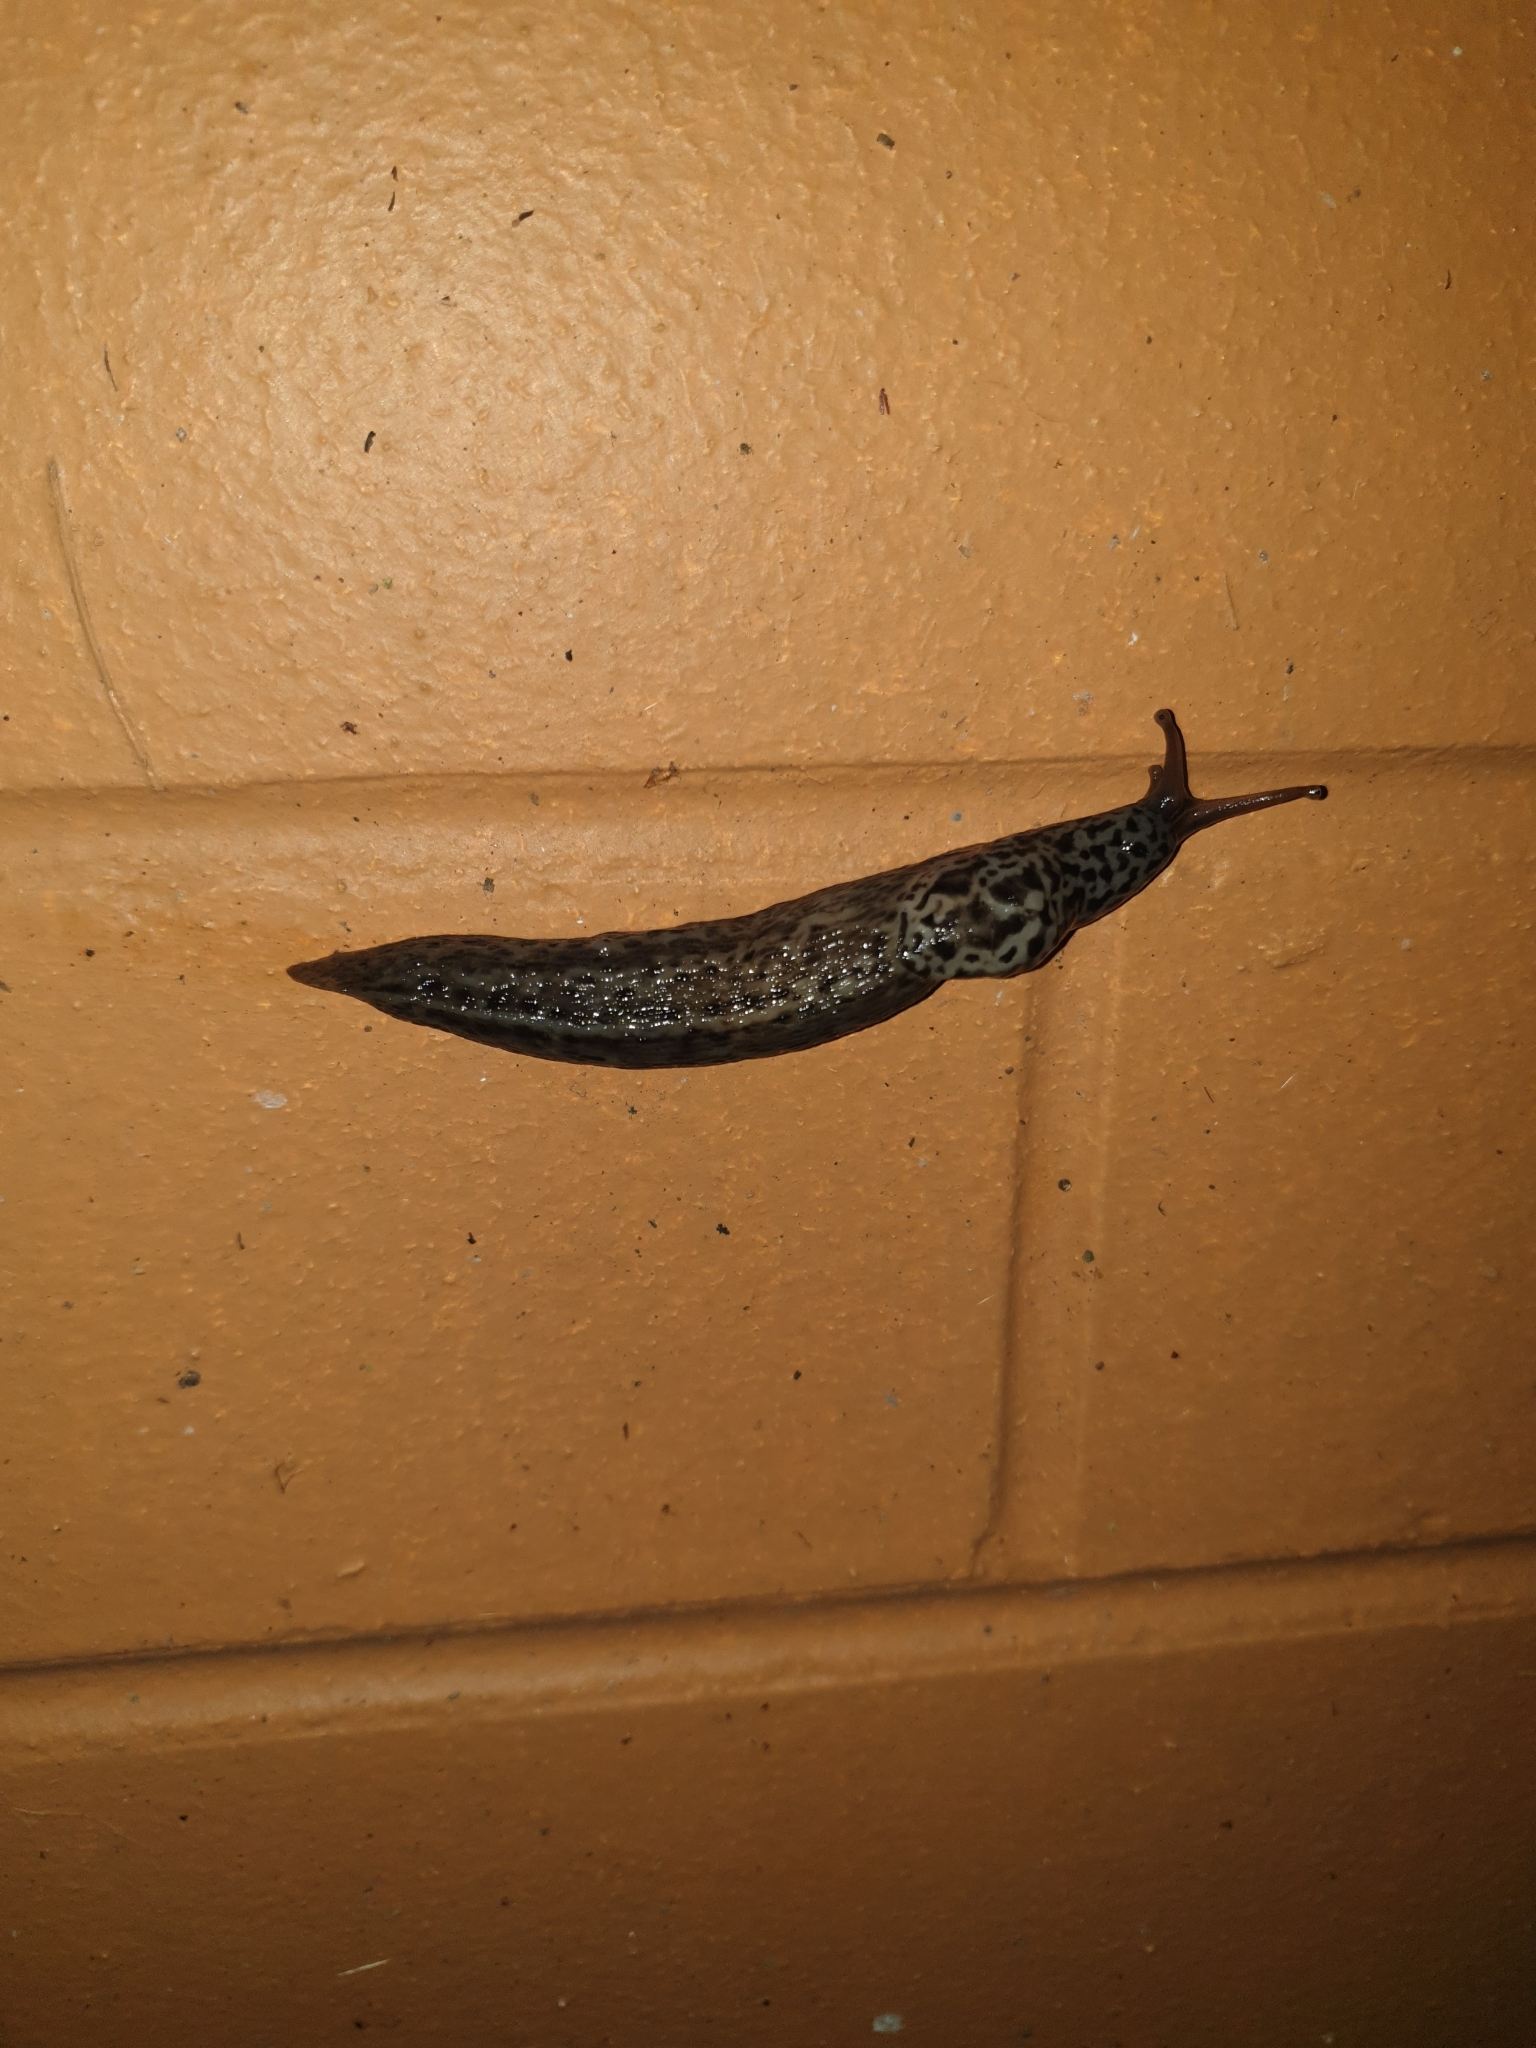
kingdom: Animalia
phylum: Mollusca
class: Gastropoda
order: Stylommatophora
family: Limacidae
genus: Limax
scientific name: Limax maximus
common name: Great grey slug
